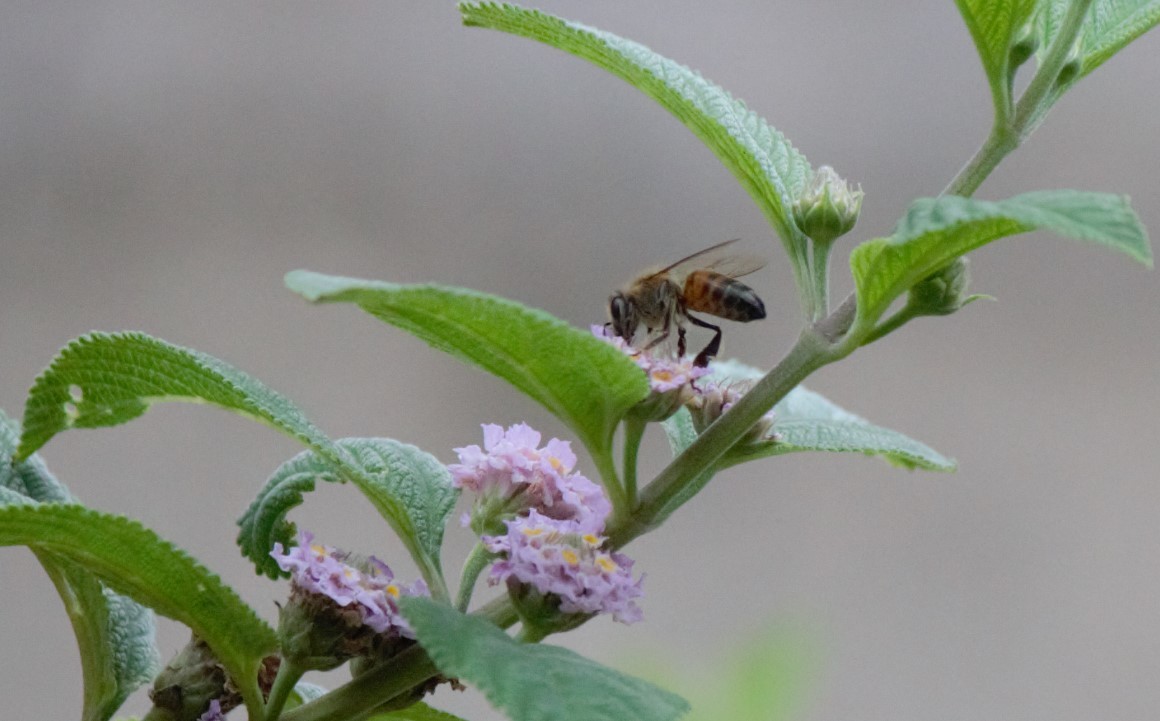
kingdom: Animalia
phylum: Arthropoda
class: Insecta
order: Hymenoptera
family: Apidae
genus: Apis
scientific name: Apis mellifera
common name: Honey bee
